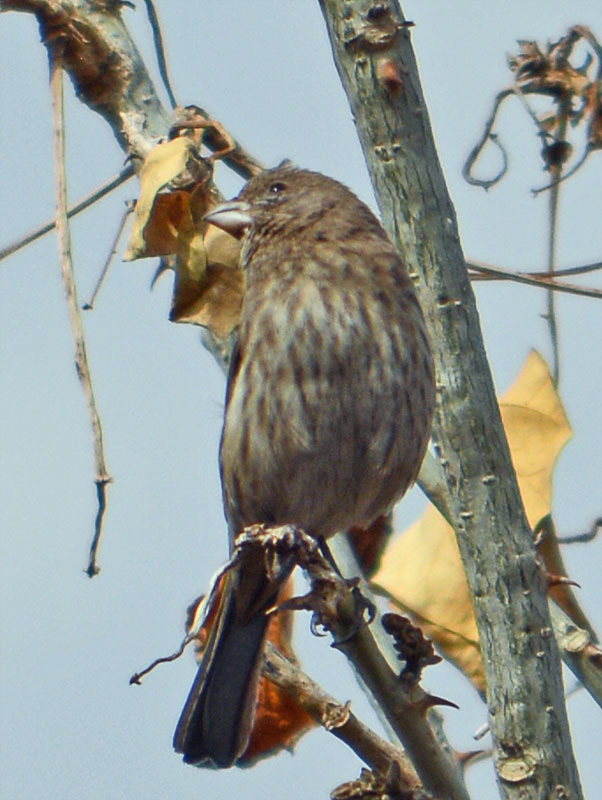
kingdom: Animalia
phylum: Chordata
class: Aves
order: Passeriformes
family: Fringillidae
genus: Haemorhous
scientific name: Haemorhous mexicanus
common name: House finch
